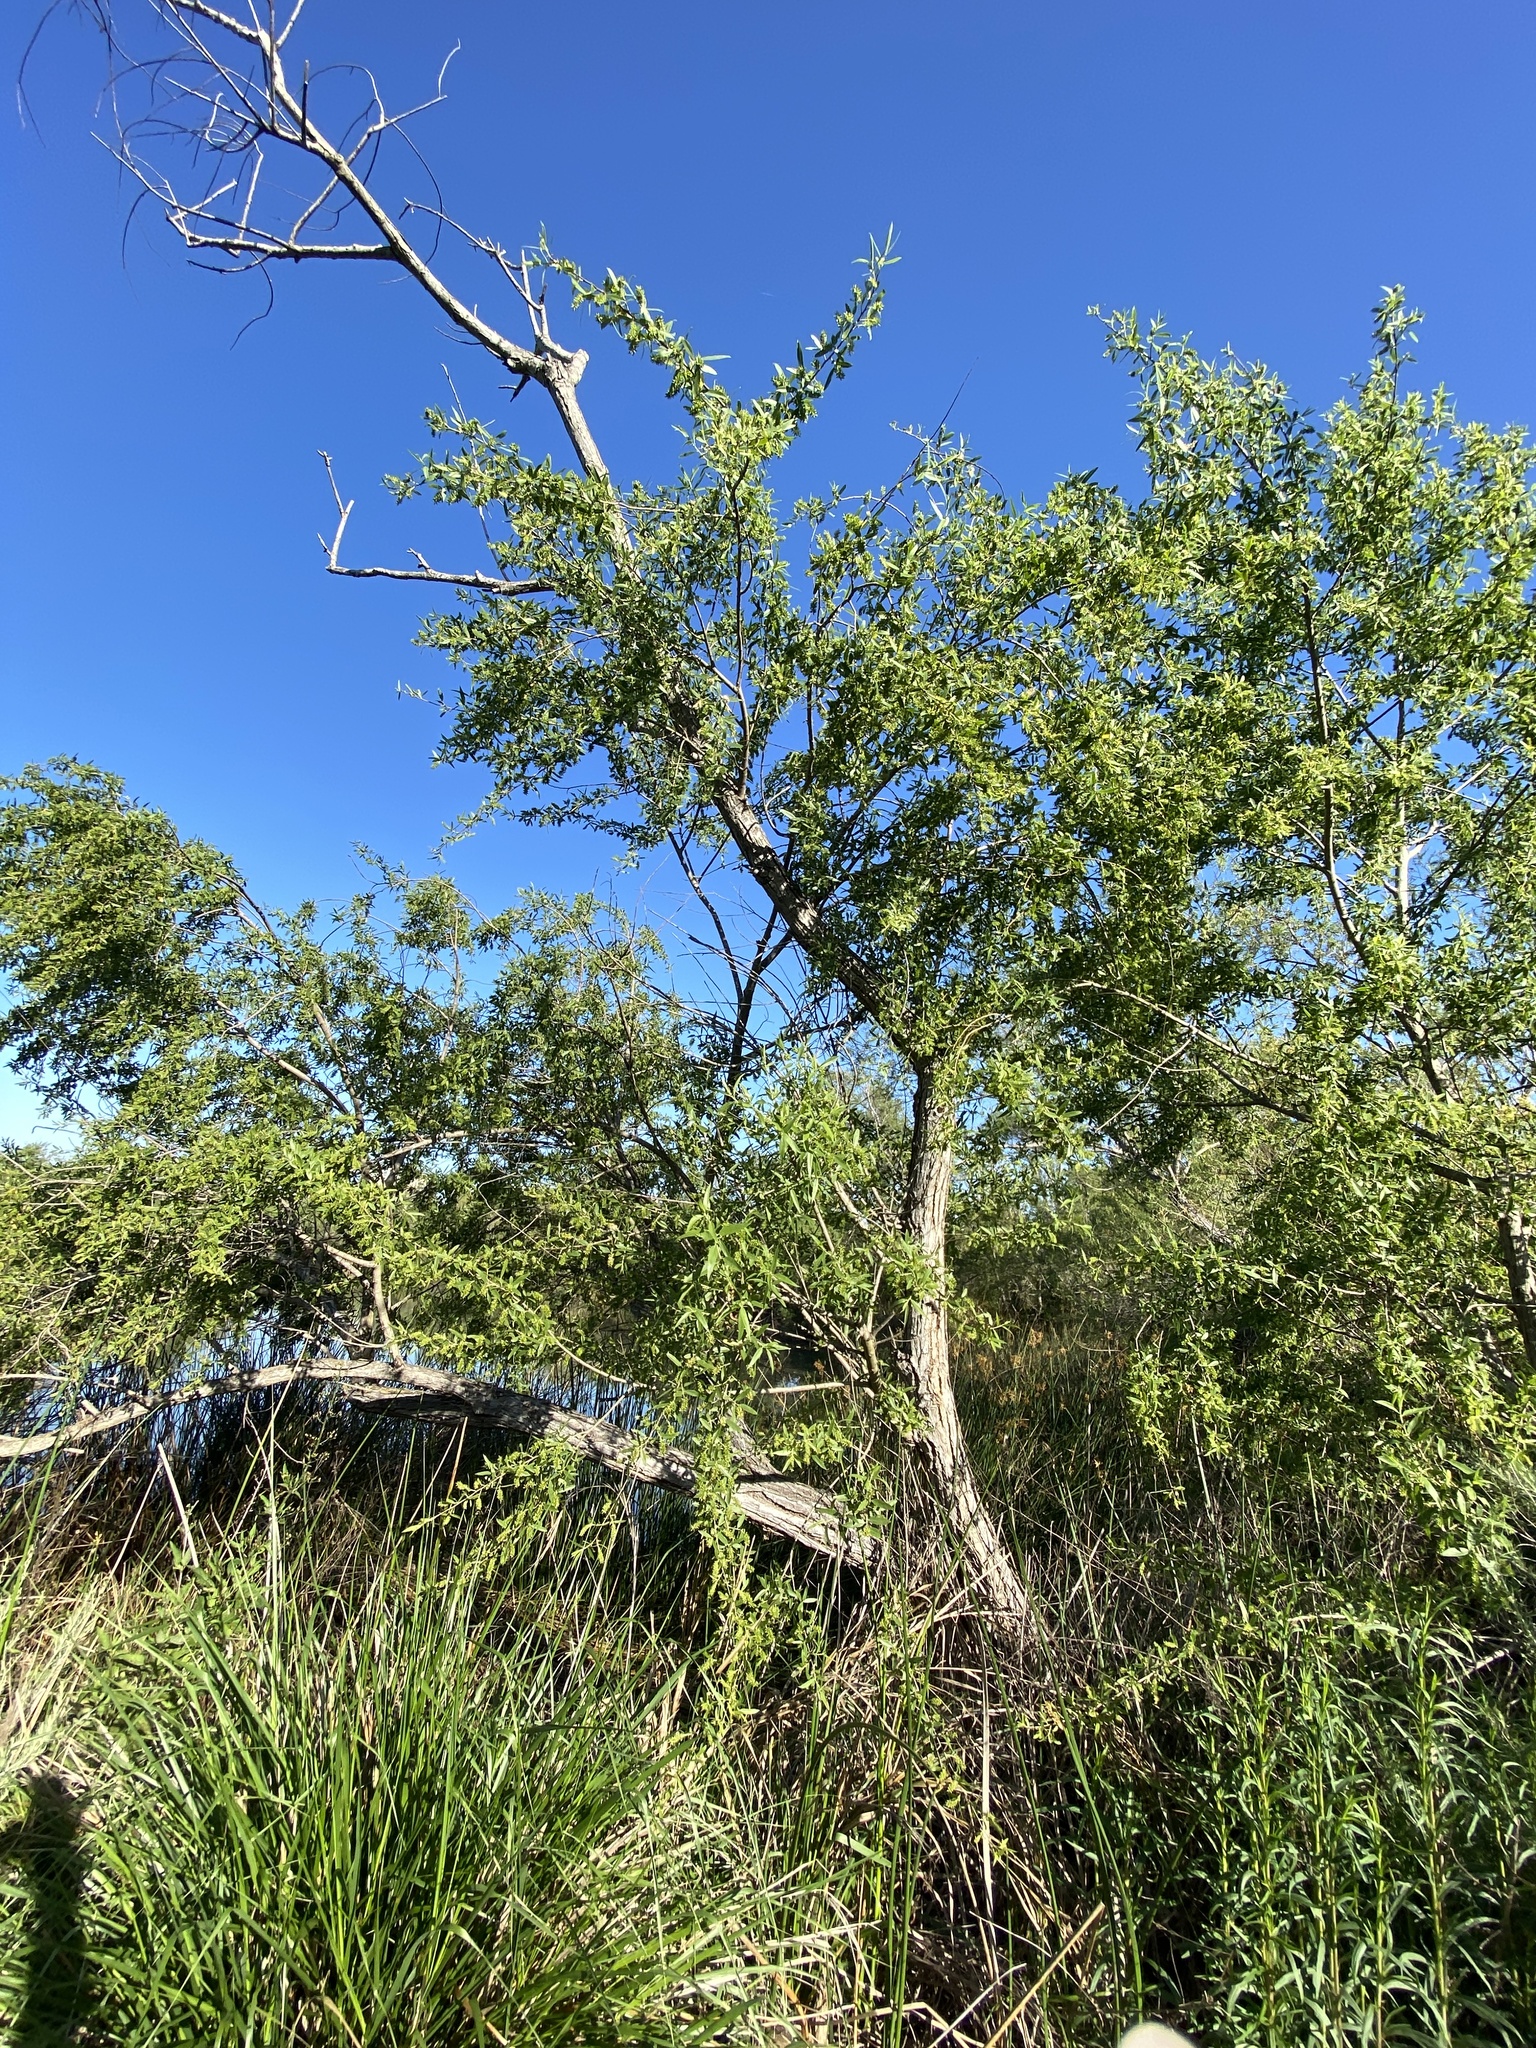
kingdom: Plantae
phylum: Tracheophyta
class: Magnoliopsida
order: Malpighiales
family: Salicaceae
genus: Salix
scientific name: Salix lasiolepis
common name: Arroyo willow
